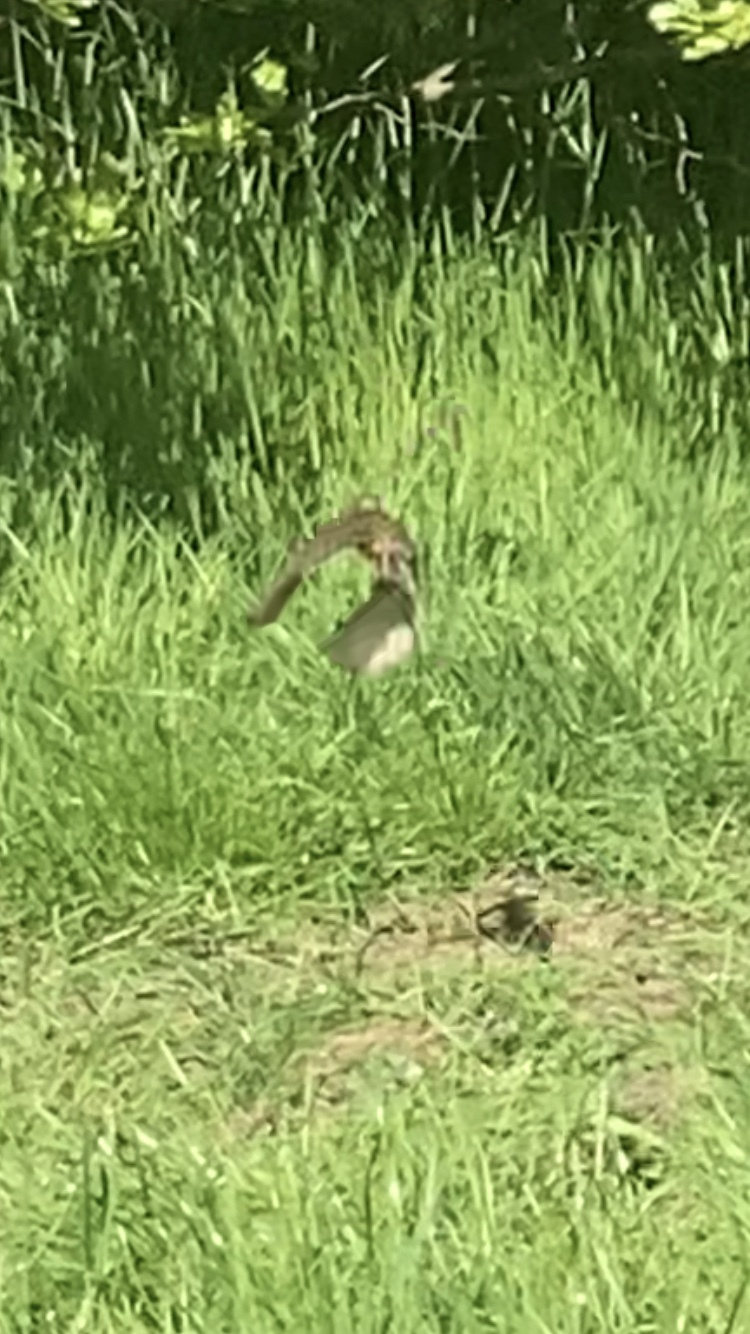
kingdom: Animalia
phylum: Chordata
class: Aves
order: Passeriformes
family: Sturnidae
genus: Sturnus
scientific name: Sturnus vulgaris
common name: Common starling
